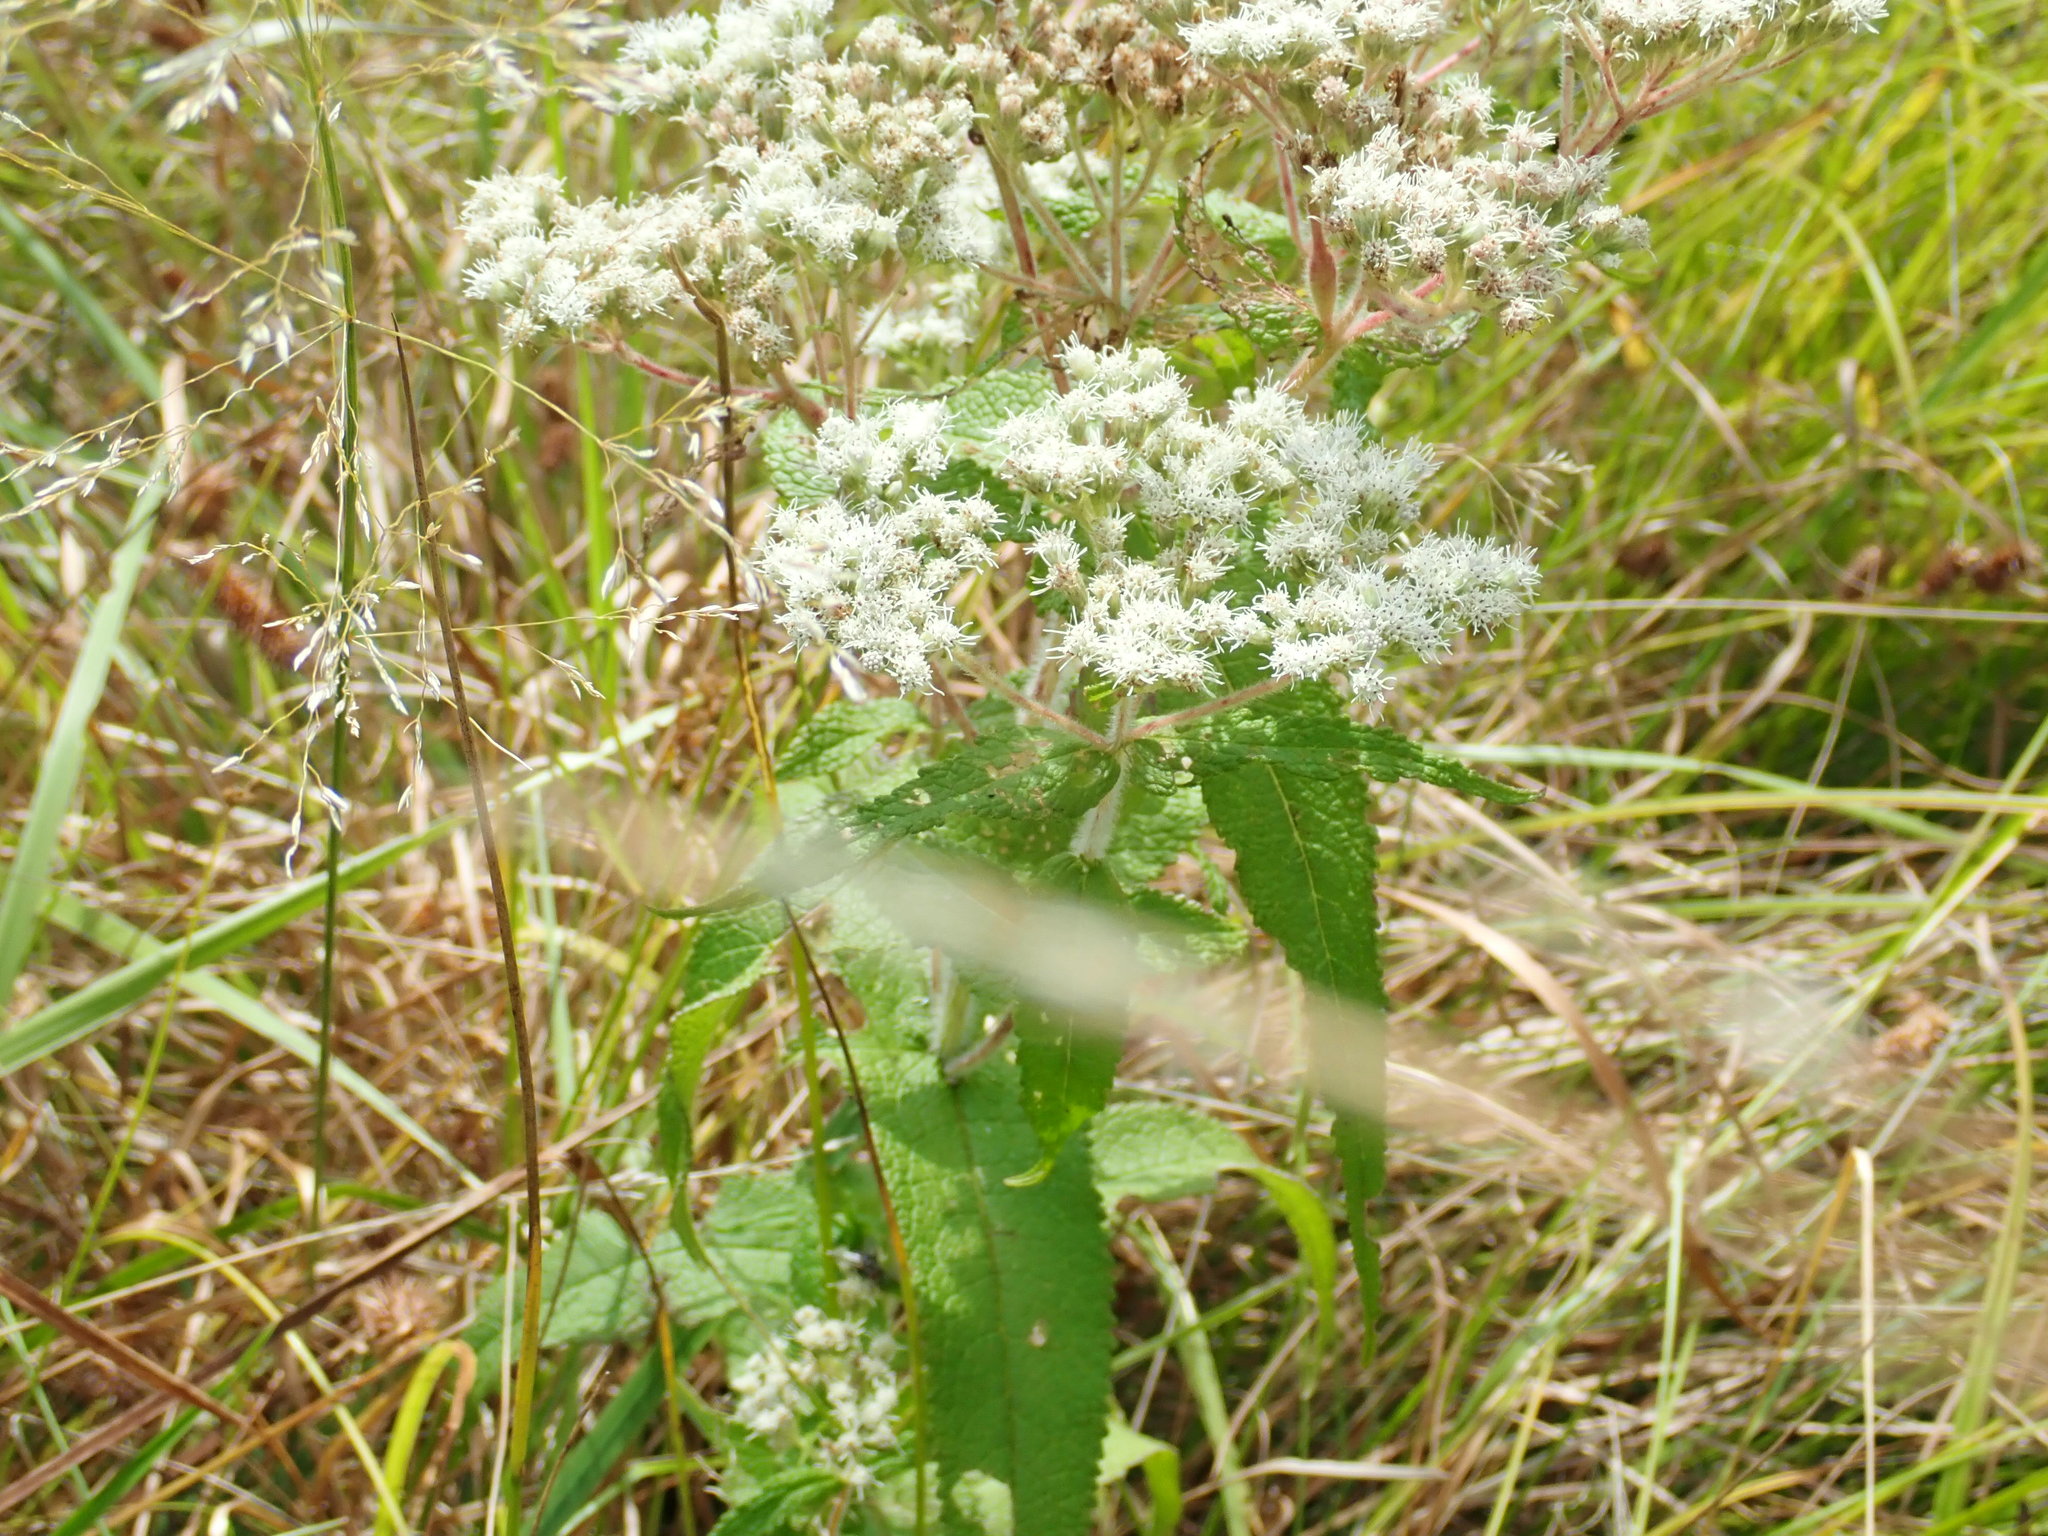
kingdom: Plantae
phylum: Tracheophyta
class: Magnoliopsida
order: Asterales
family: Asteraceae
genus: Eupatorium
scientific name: Eupatorium perfoliatum
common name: Boneset
